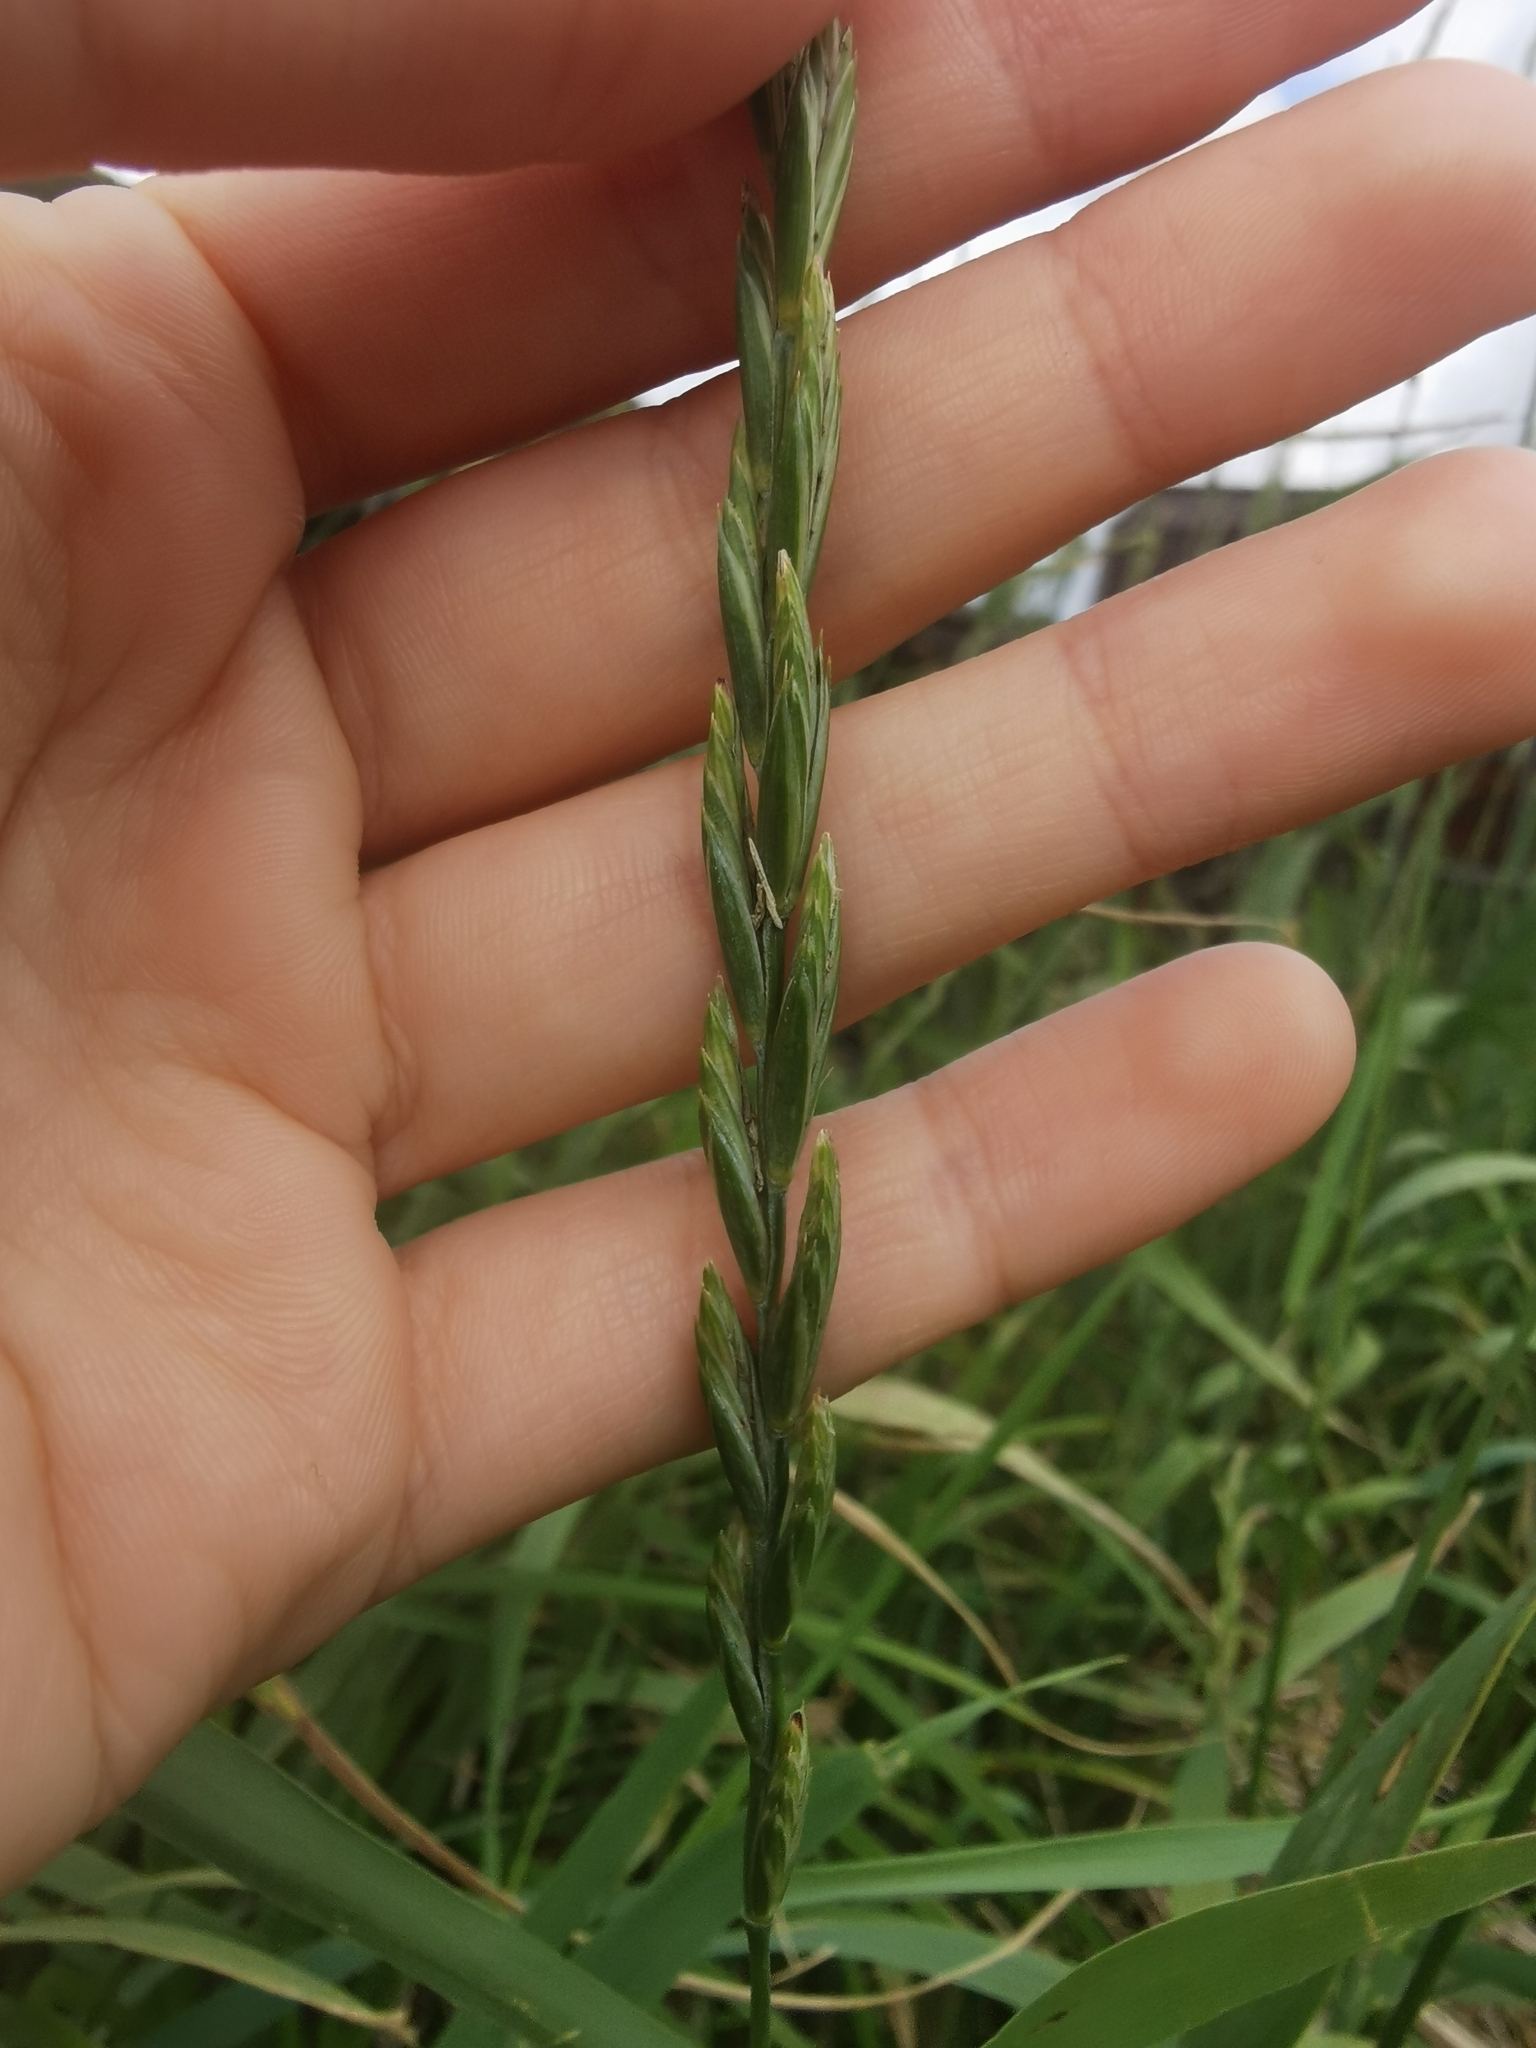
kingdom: Plantae
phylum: Tracheophyta
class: Liliopsida
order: Poales
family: Poaceae
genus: Elymus
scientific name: Elymus repens
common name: Quackgrass
